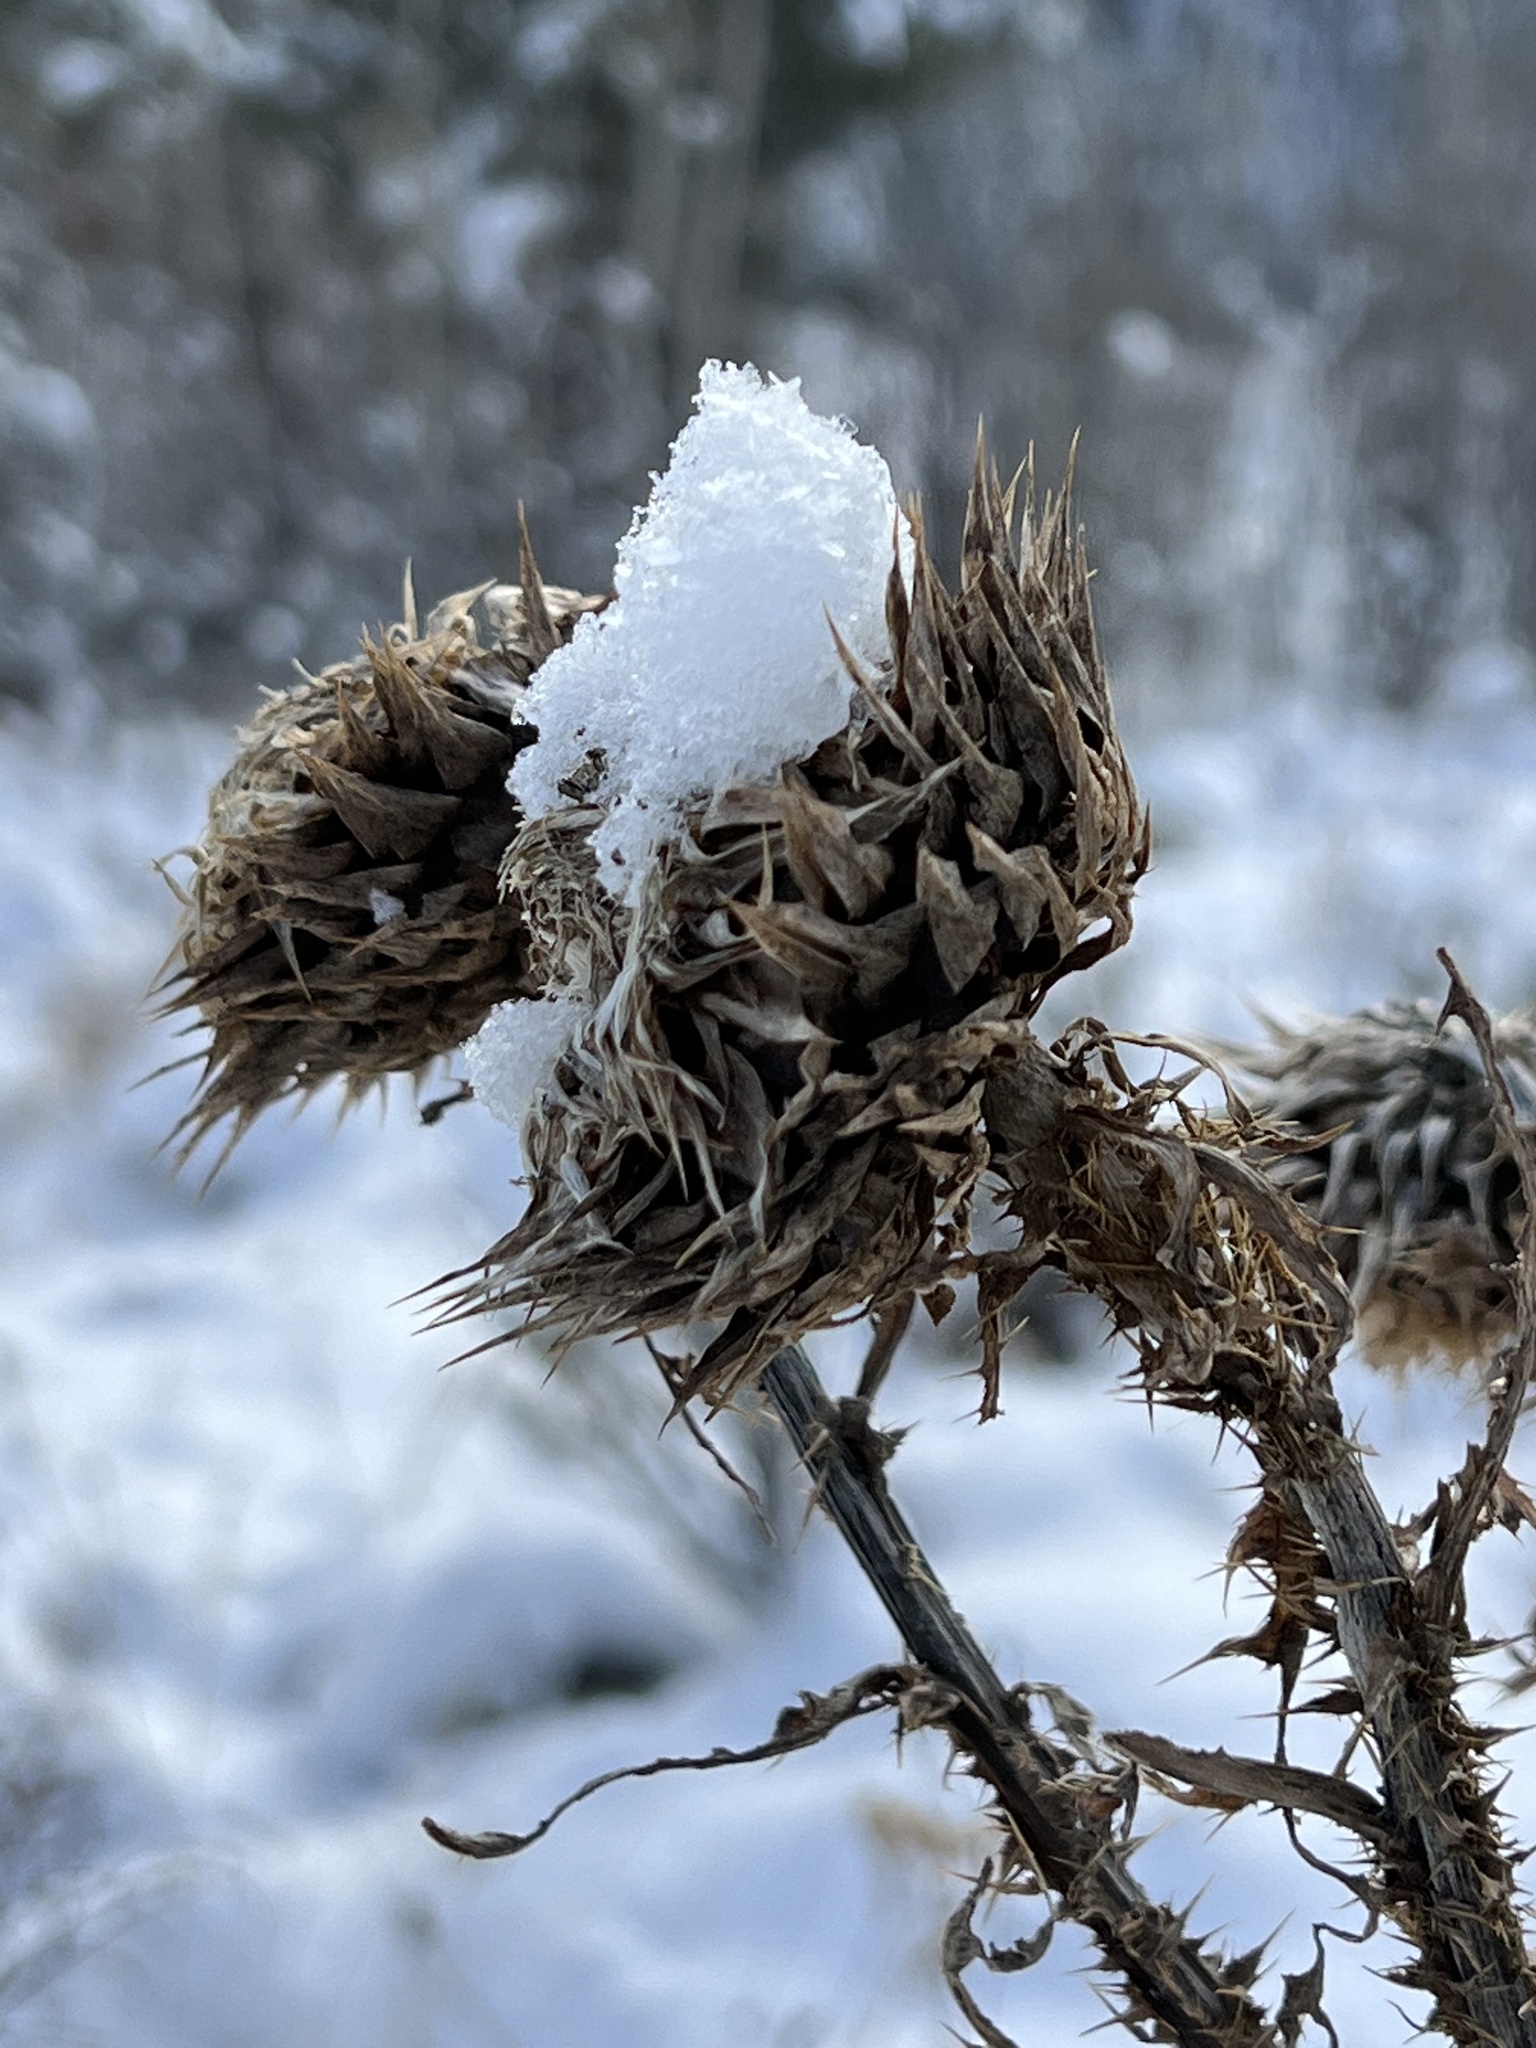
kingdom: Plantae
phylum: Tracheophyta
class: Magnoliopsida
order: Asterales
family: Asteraceae
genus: Carduus
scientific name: Carduus nutans
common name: Musk thistle
